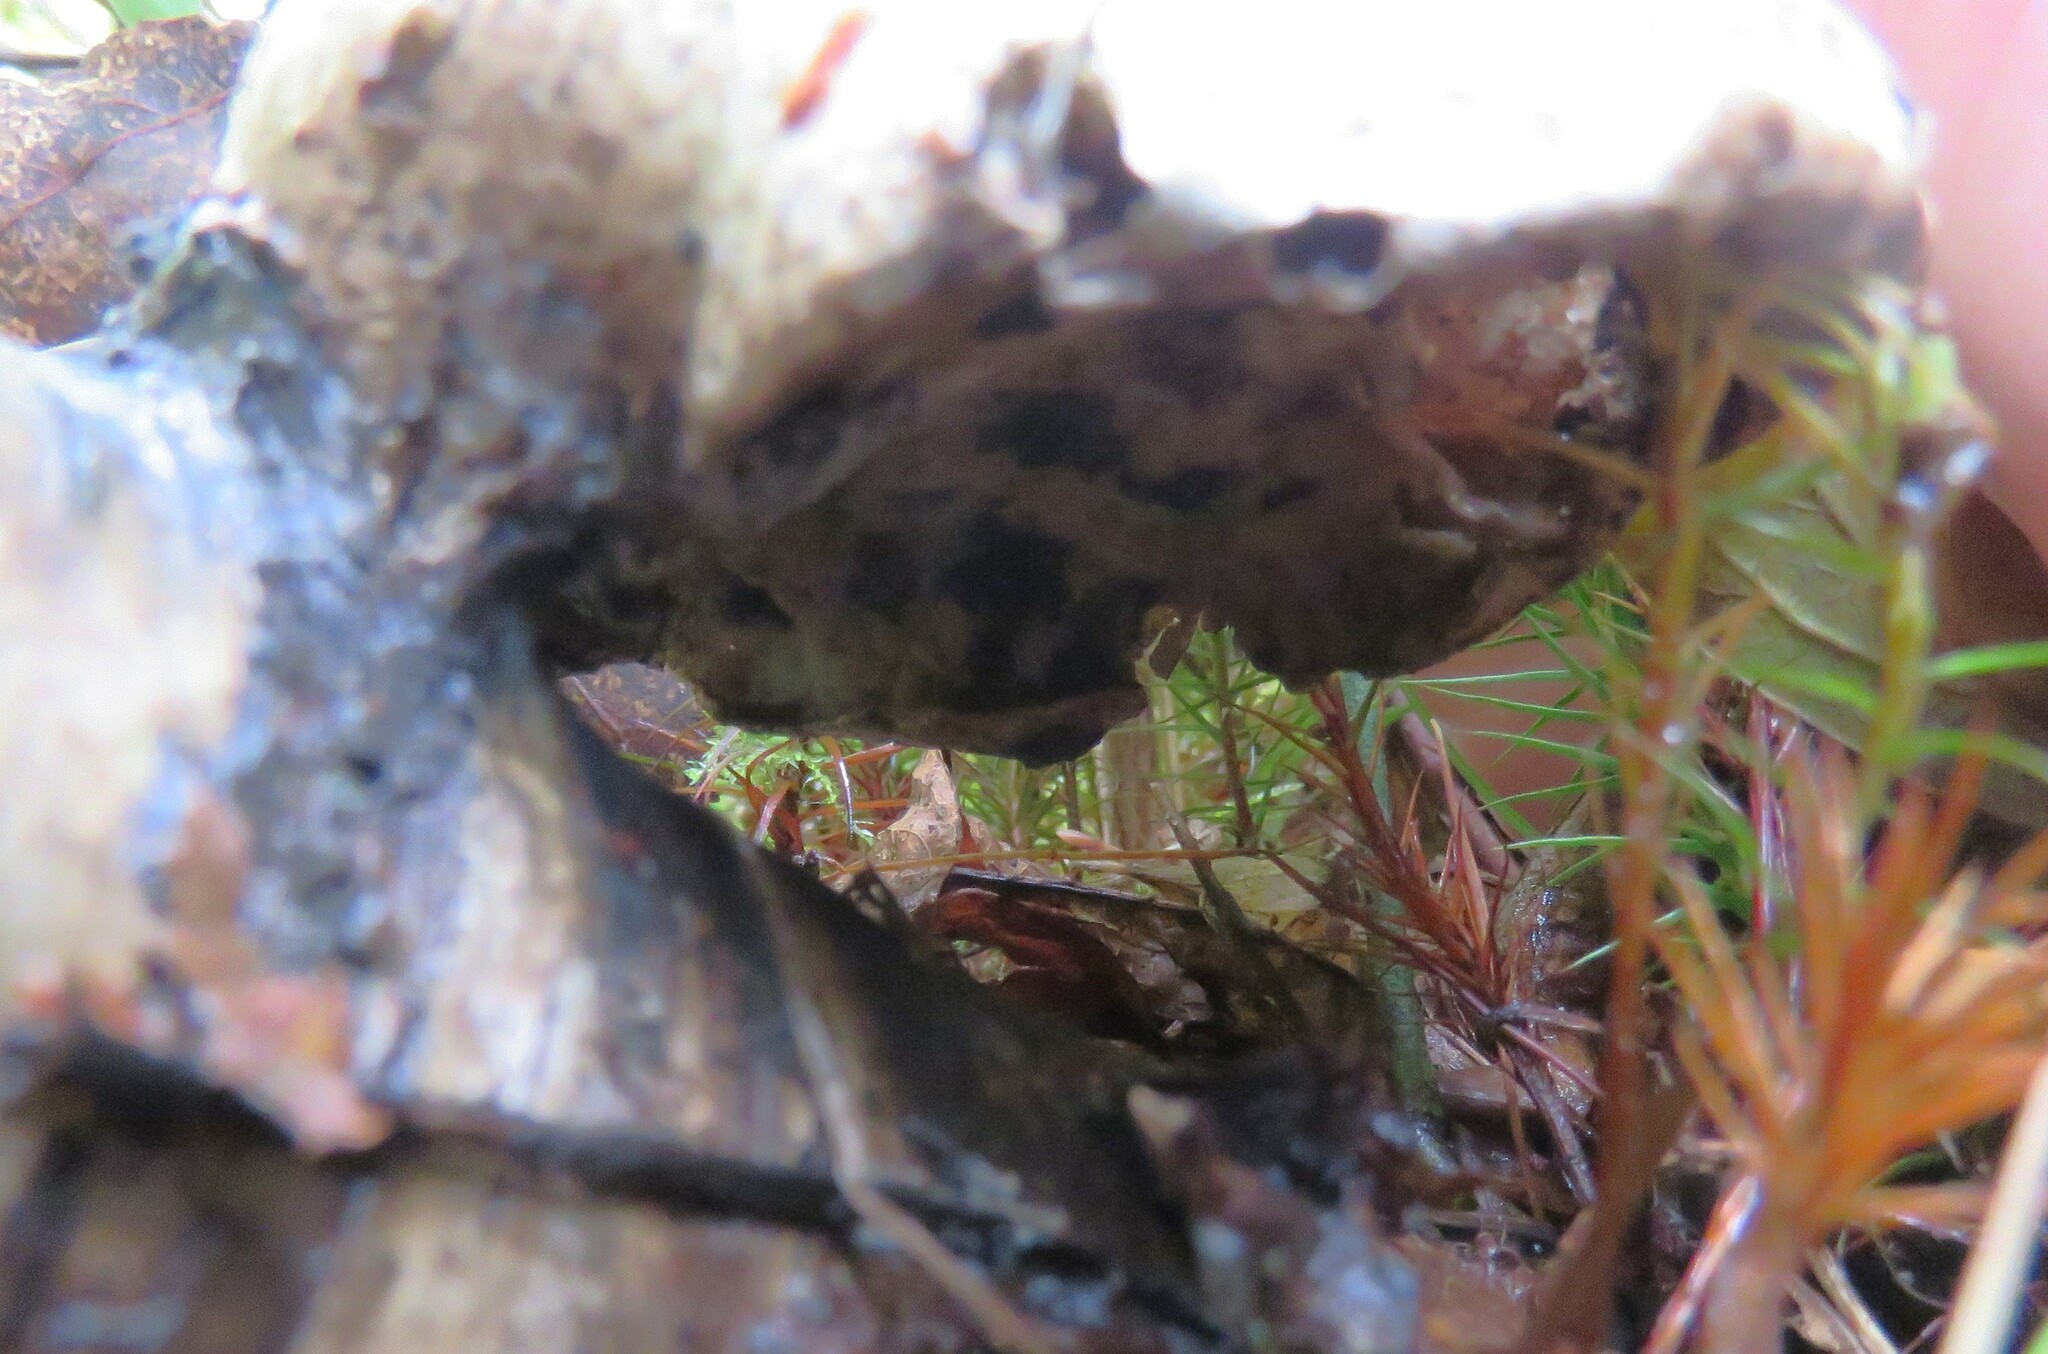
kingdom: Fungi
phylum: Basidiomycota
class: Agaricomycetes
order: Polyporales
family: Fomitopsidaceae
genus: Fomitopsis
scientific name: Fomitopsis betulina
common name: Birch polypore
